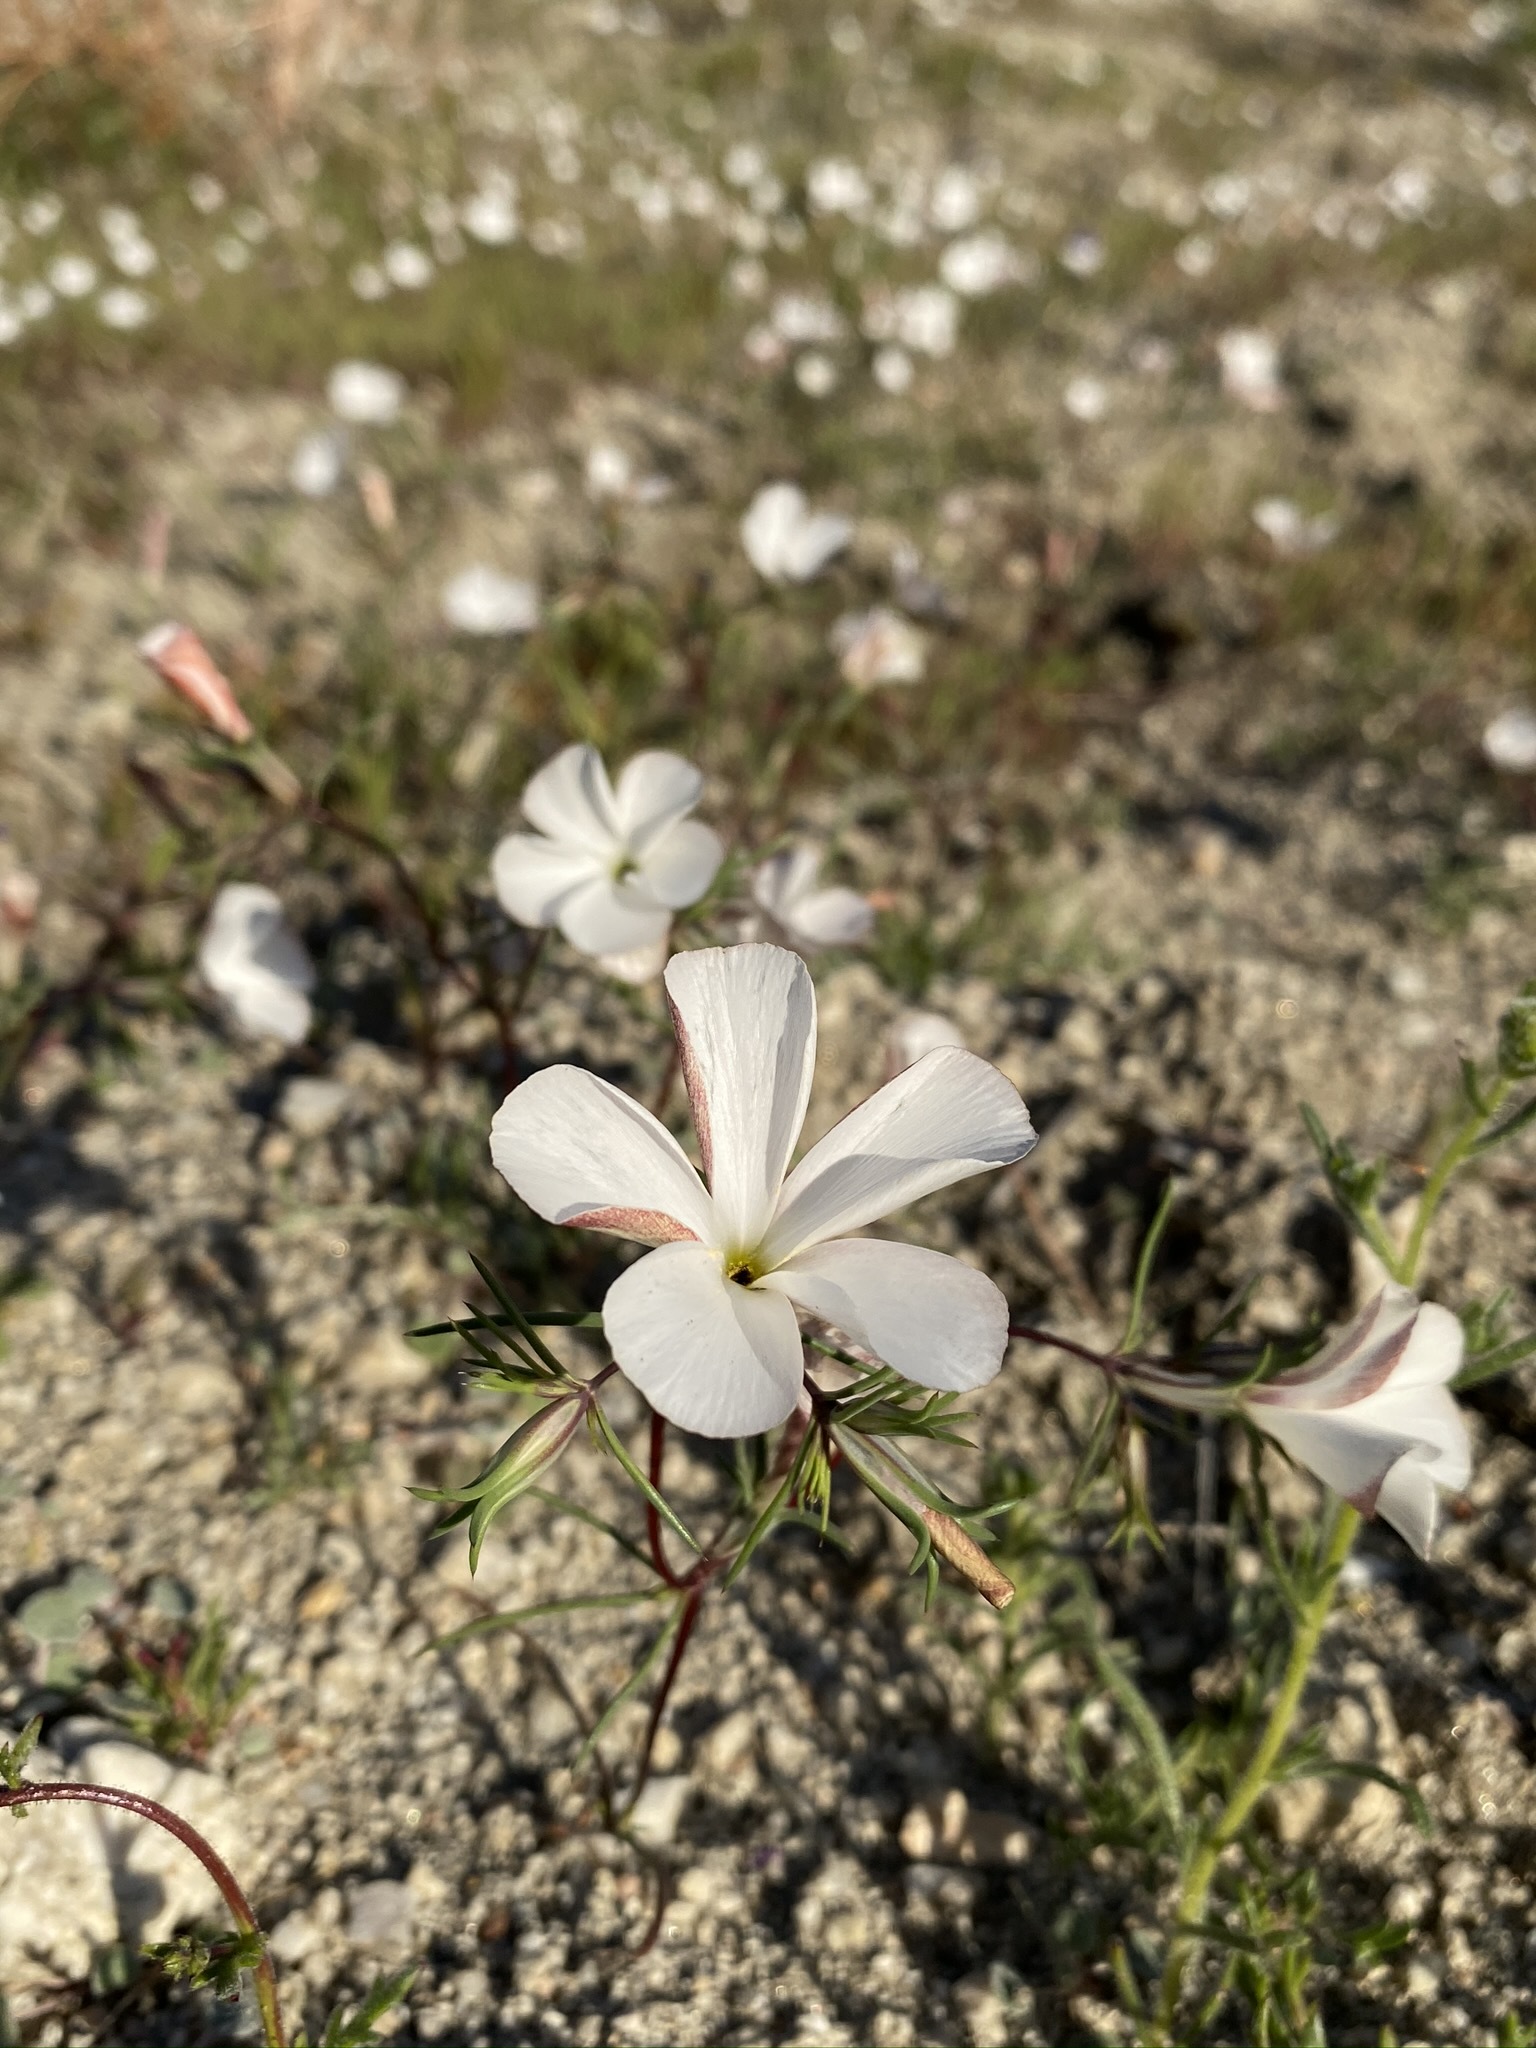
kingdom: Plantae
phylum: Tracheophyta
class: Magnoliopsida
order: Ericales
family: Polemoniaceae
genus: Linanthus
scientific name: Linanthus dichotomus
